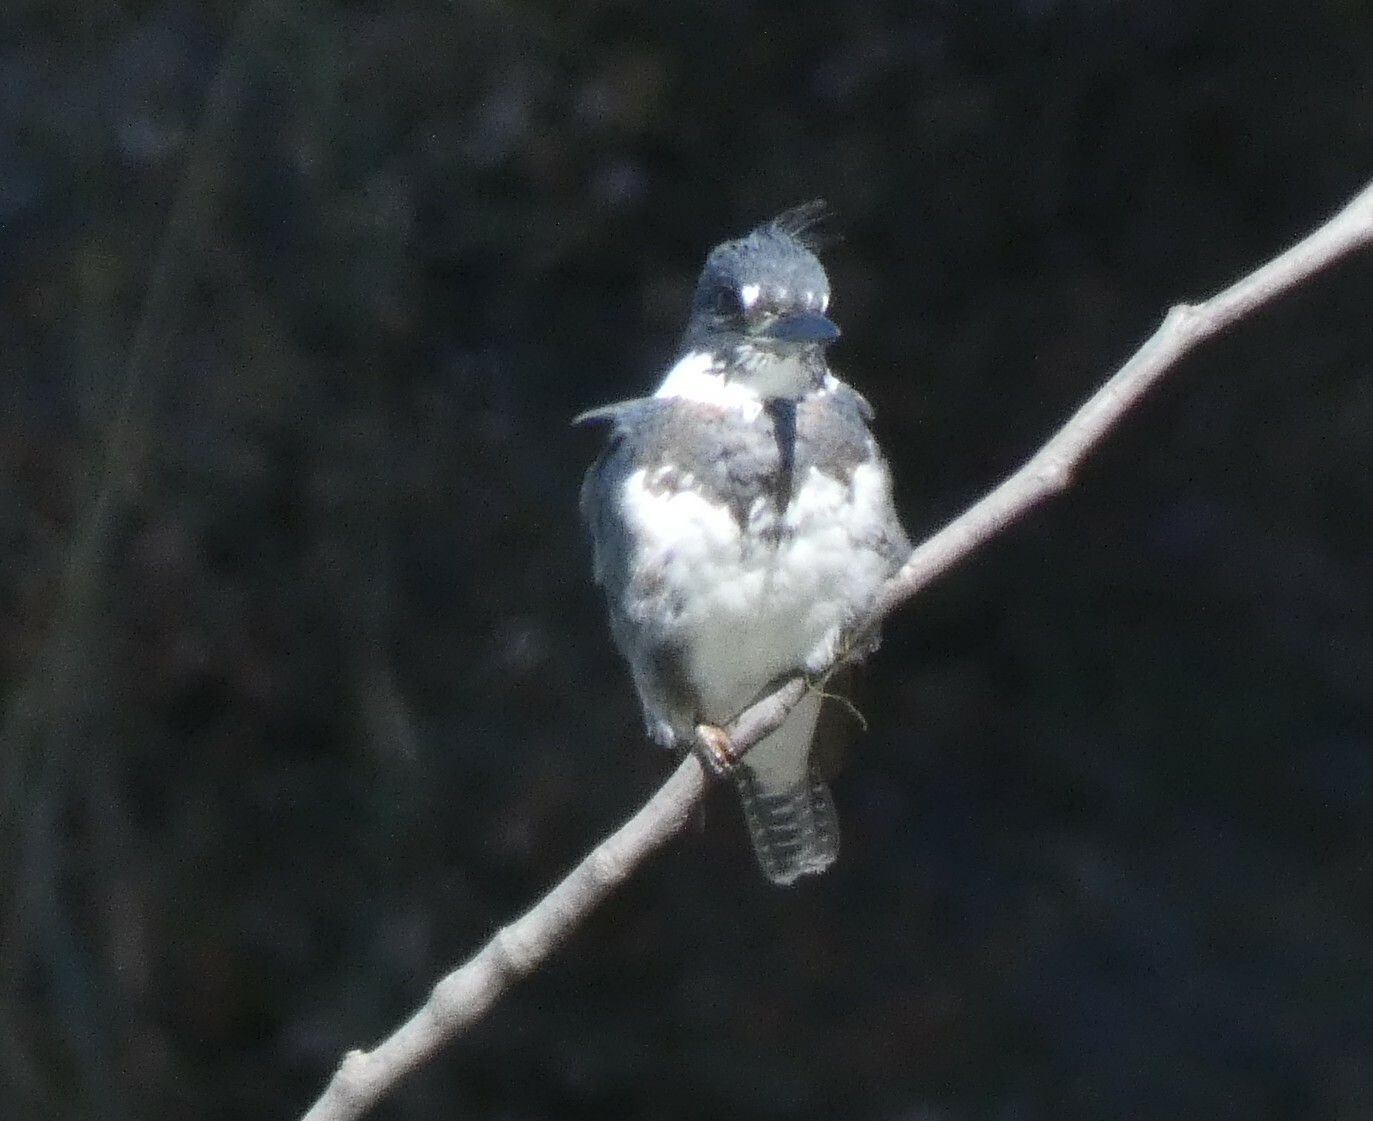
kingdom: Animalia
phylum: Chordata
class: Aves
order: Coraciiformes
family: Alcedinidae
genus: Megaceryle
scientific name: Megaceryle alcyon
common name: Belted kingfisher
